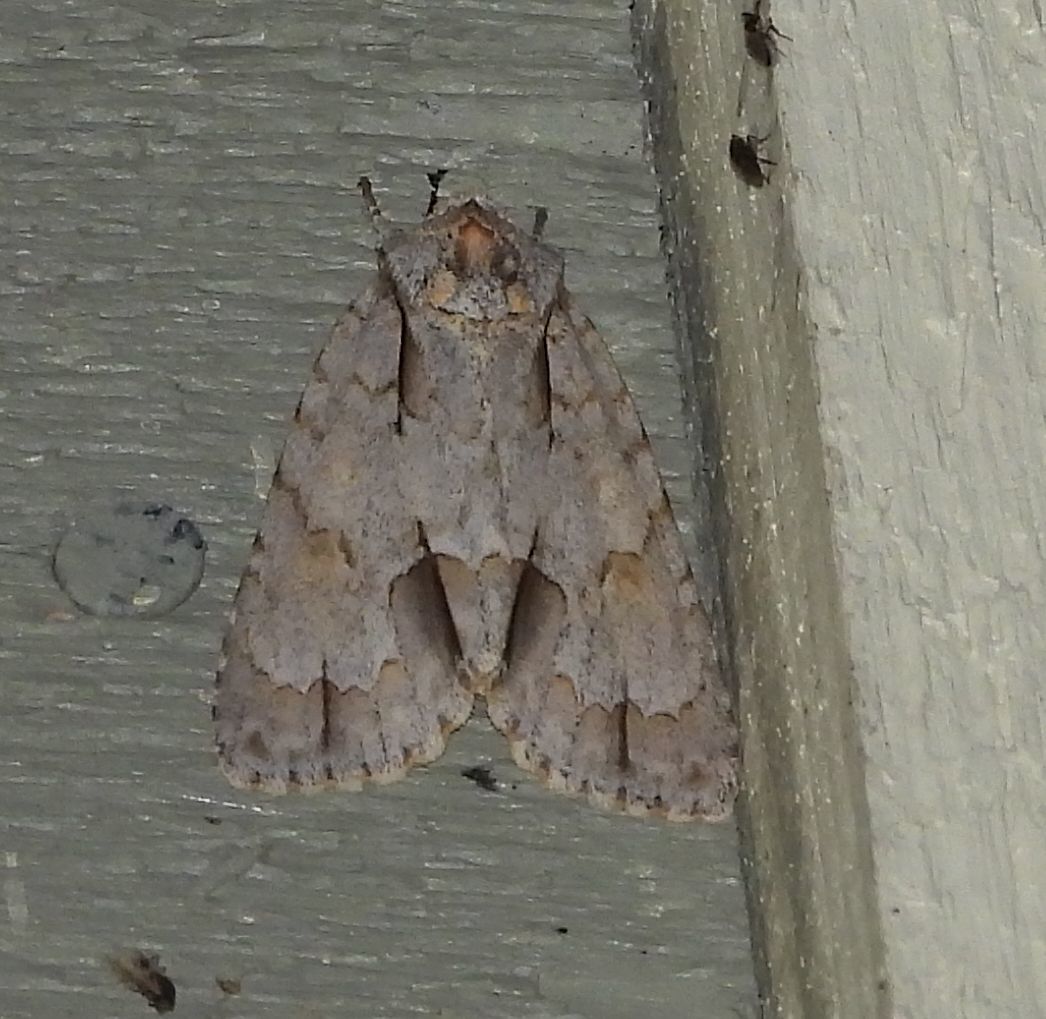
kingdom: Animalia
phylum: Arthropoda
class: Insecta
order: Lepidoptera
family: Noctuidae
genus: Acronicta
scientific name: Acronicta morula
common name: Ochre dagger
